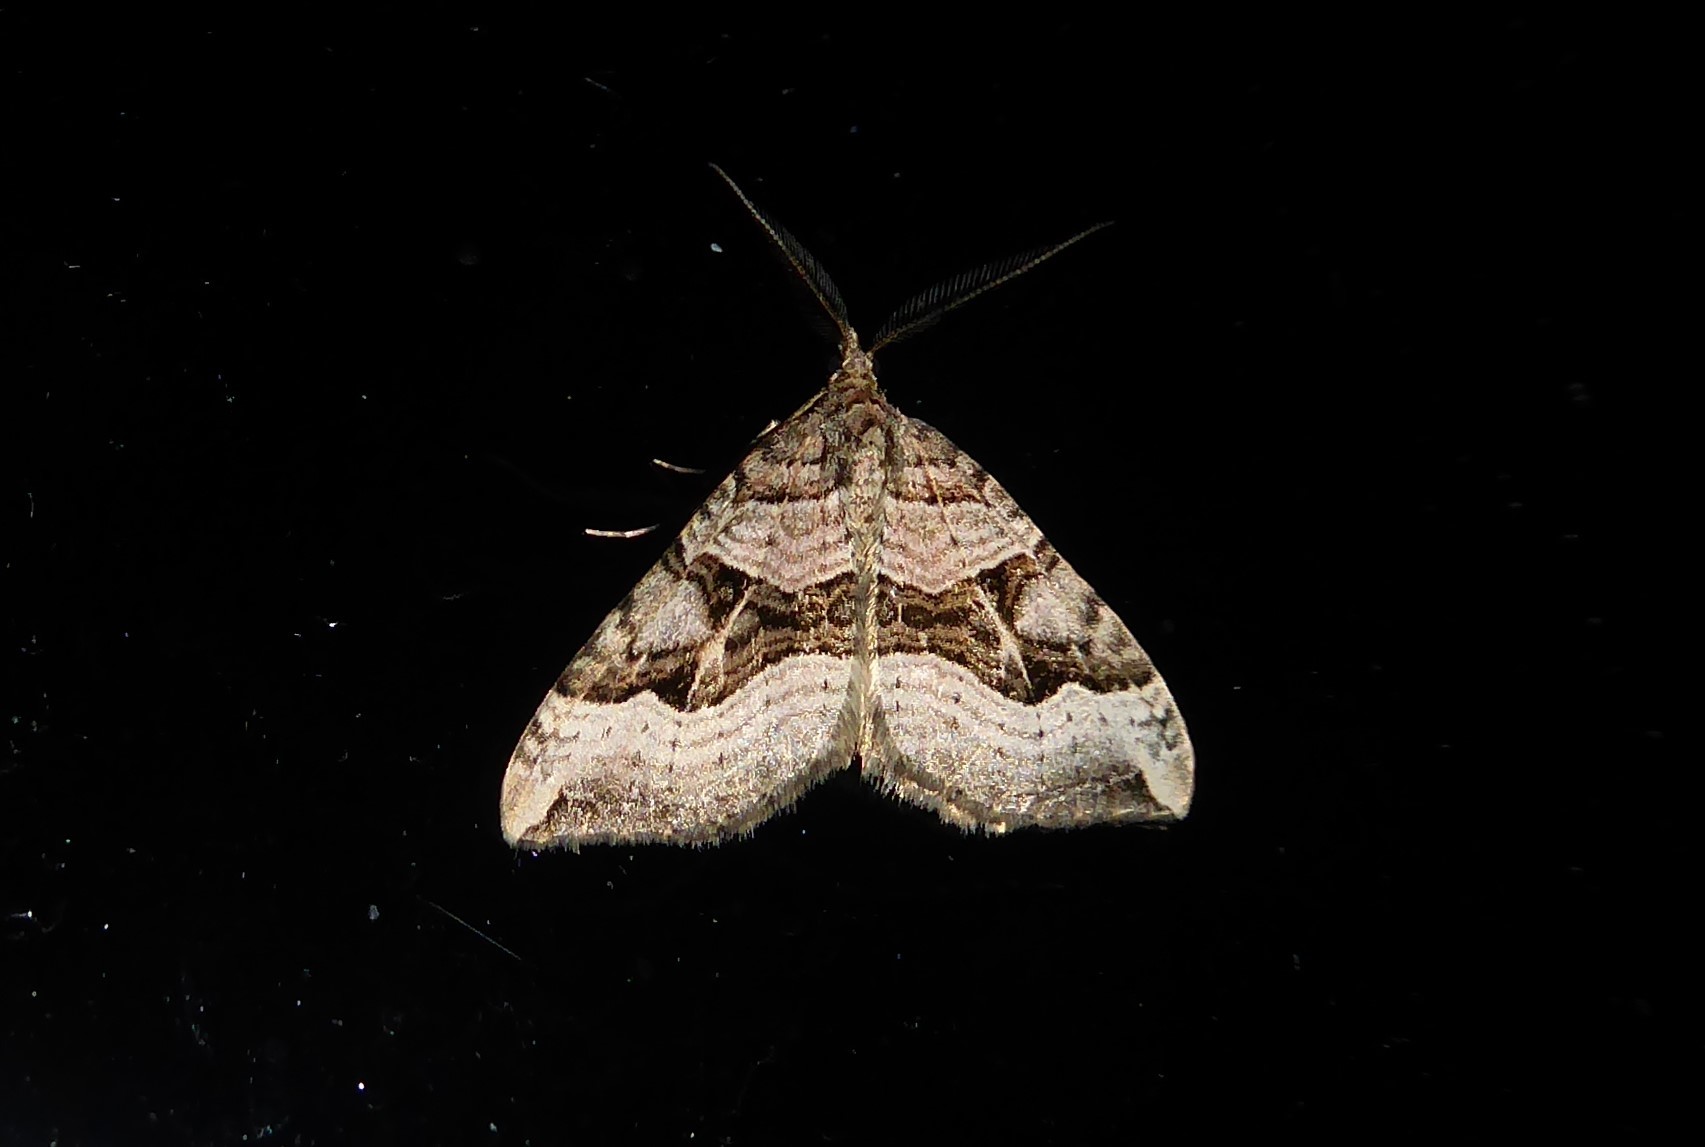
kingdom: Animalia
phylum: Arthropoda
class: Insecta
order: Lepidoptera
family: Geometridae
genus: Xanthorhoe
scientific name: Xanthorhoe semifissata
